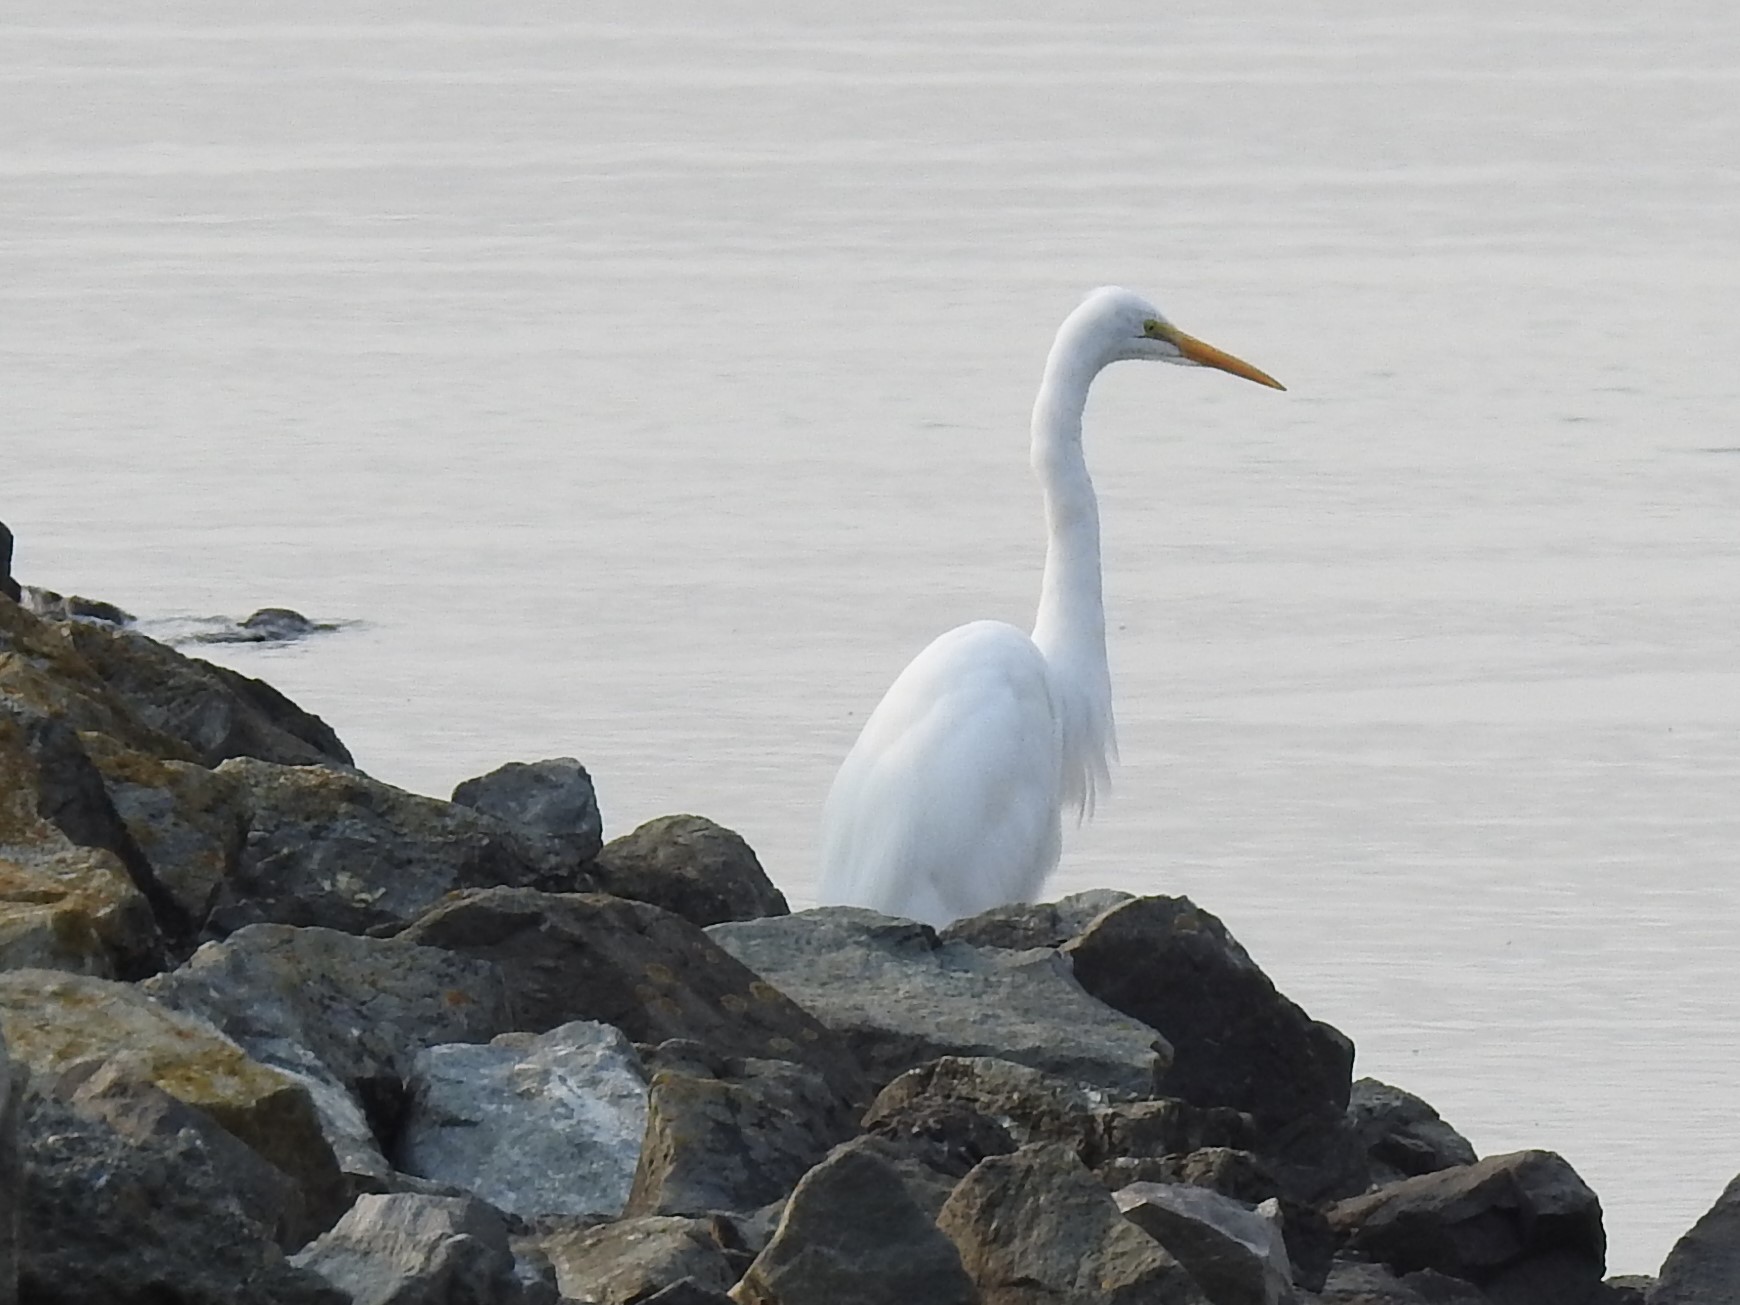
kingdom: Animalia
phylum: Chordata
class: Aves
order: Pelecaniformes
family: Ardeidae
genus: Ardea
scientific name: Ardea alba
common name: Great egret
